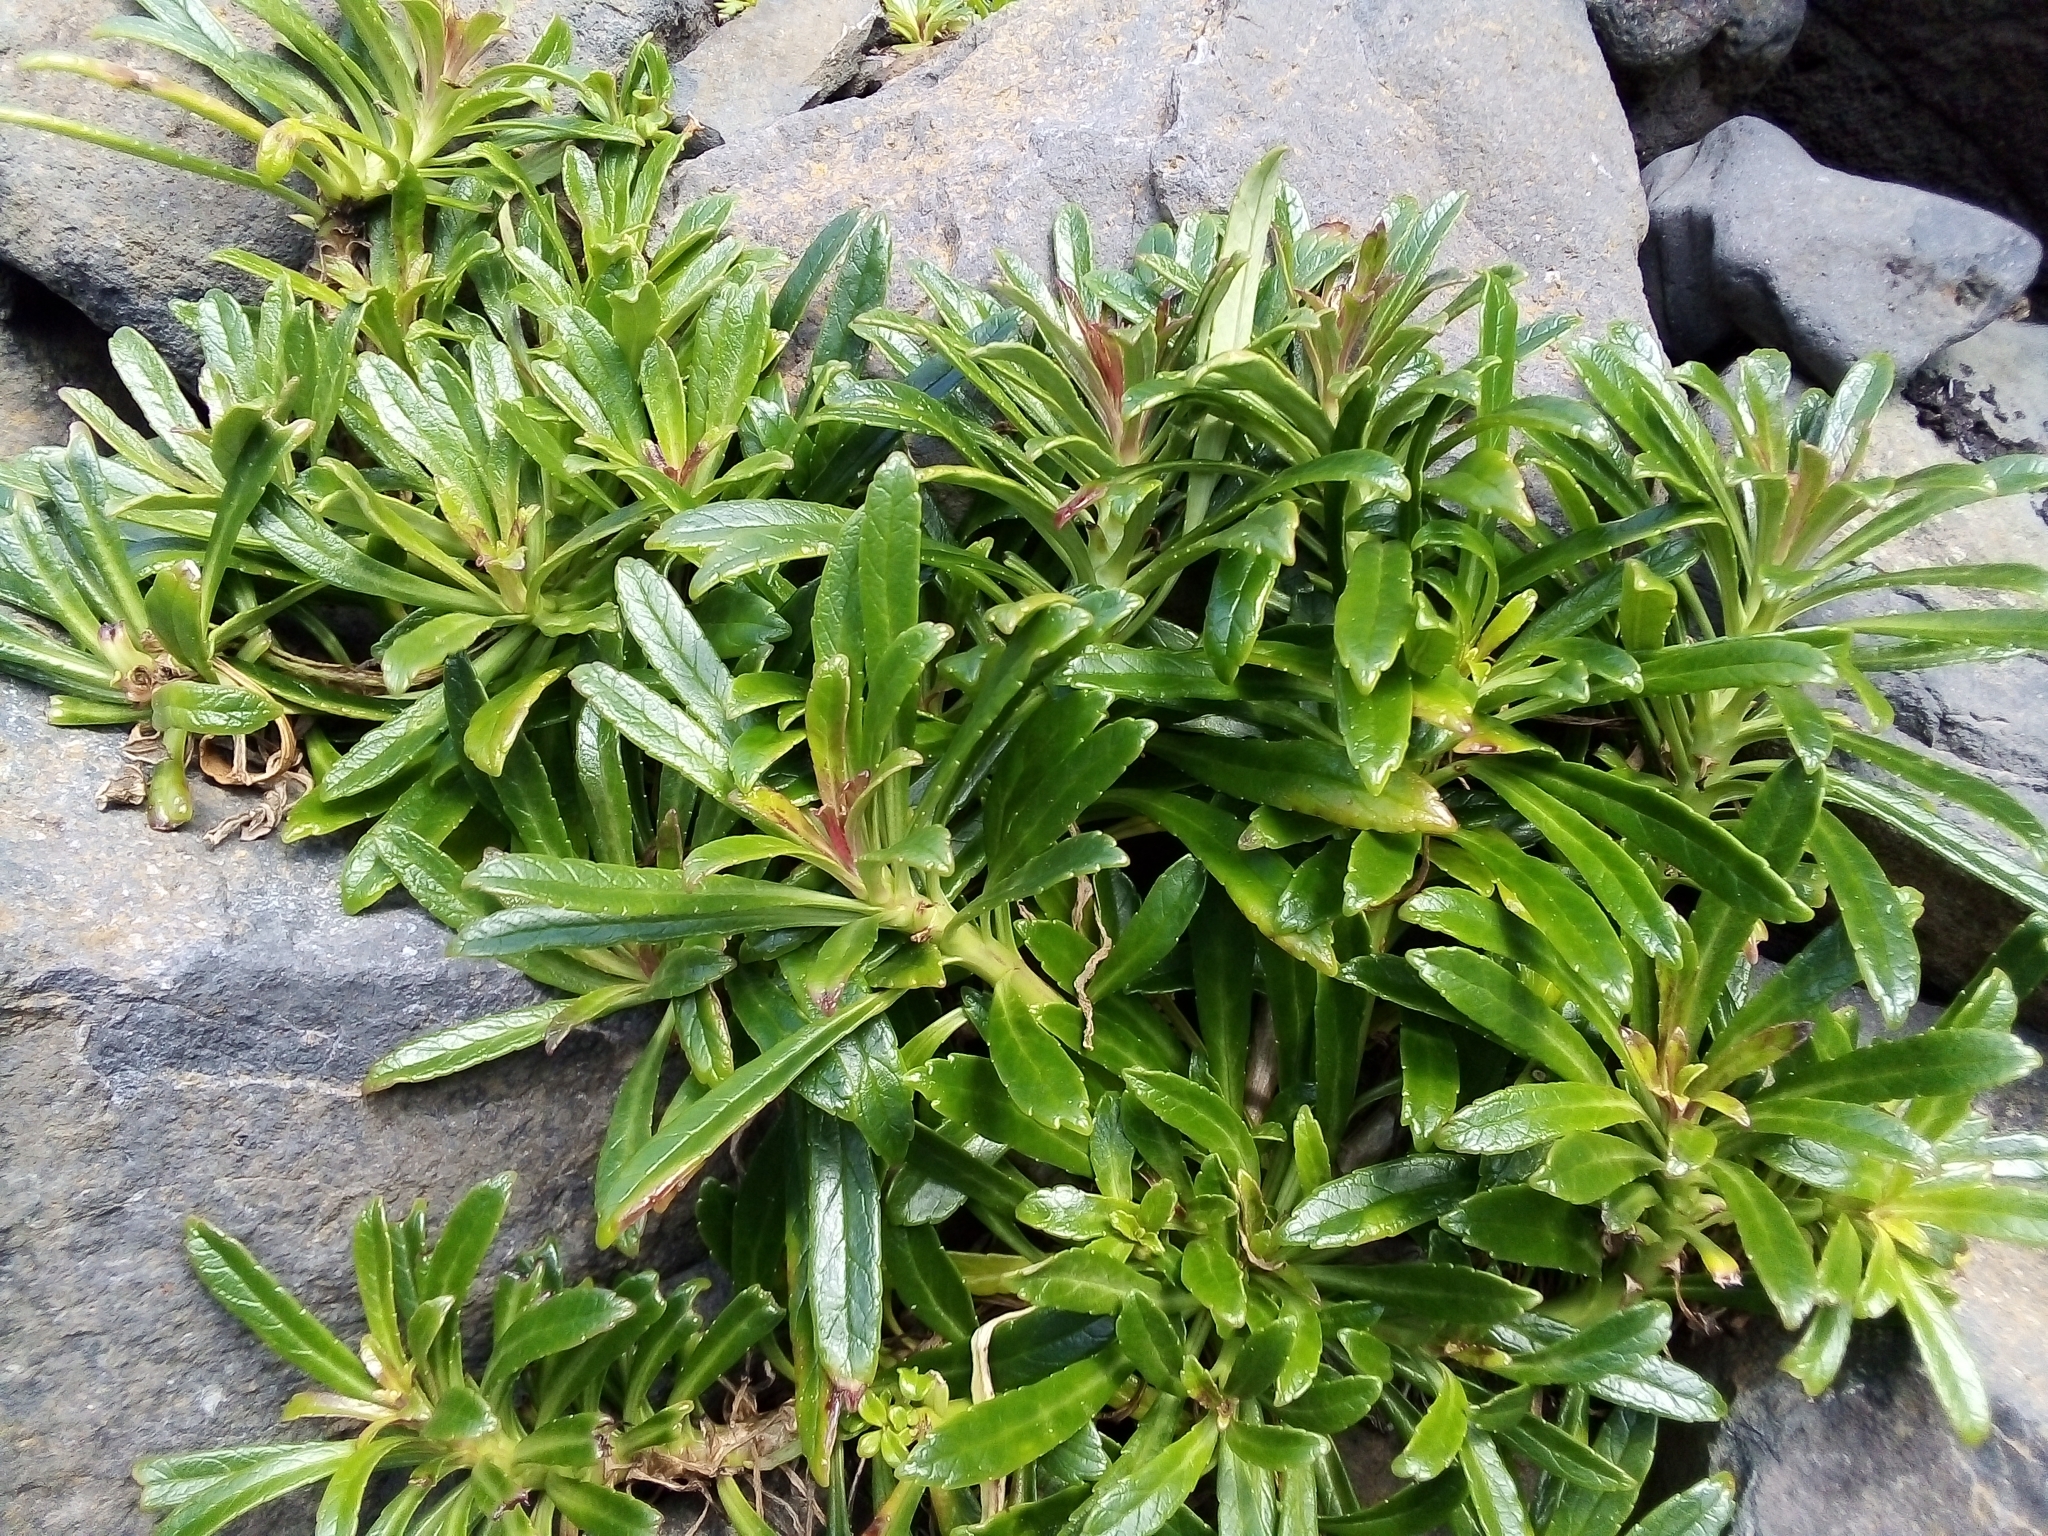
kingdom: Plantae
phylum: Tracheophyta
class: Magnoliopsida
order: Asterales
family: Campanulaceae
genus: Campanula
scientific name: Campanula vidalii
